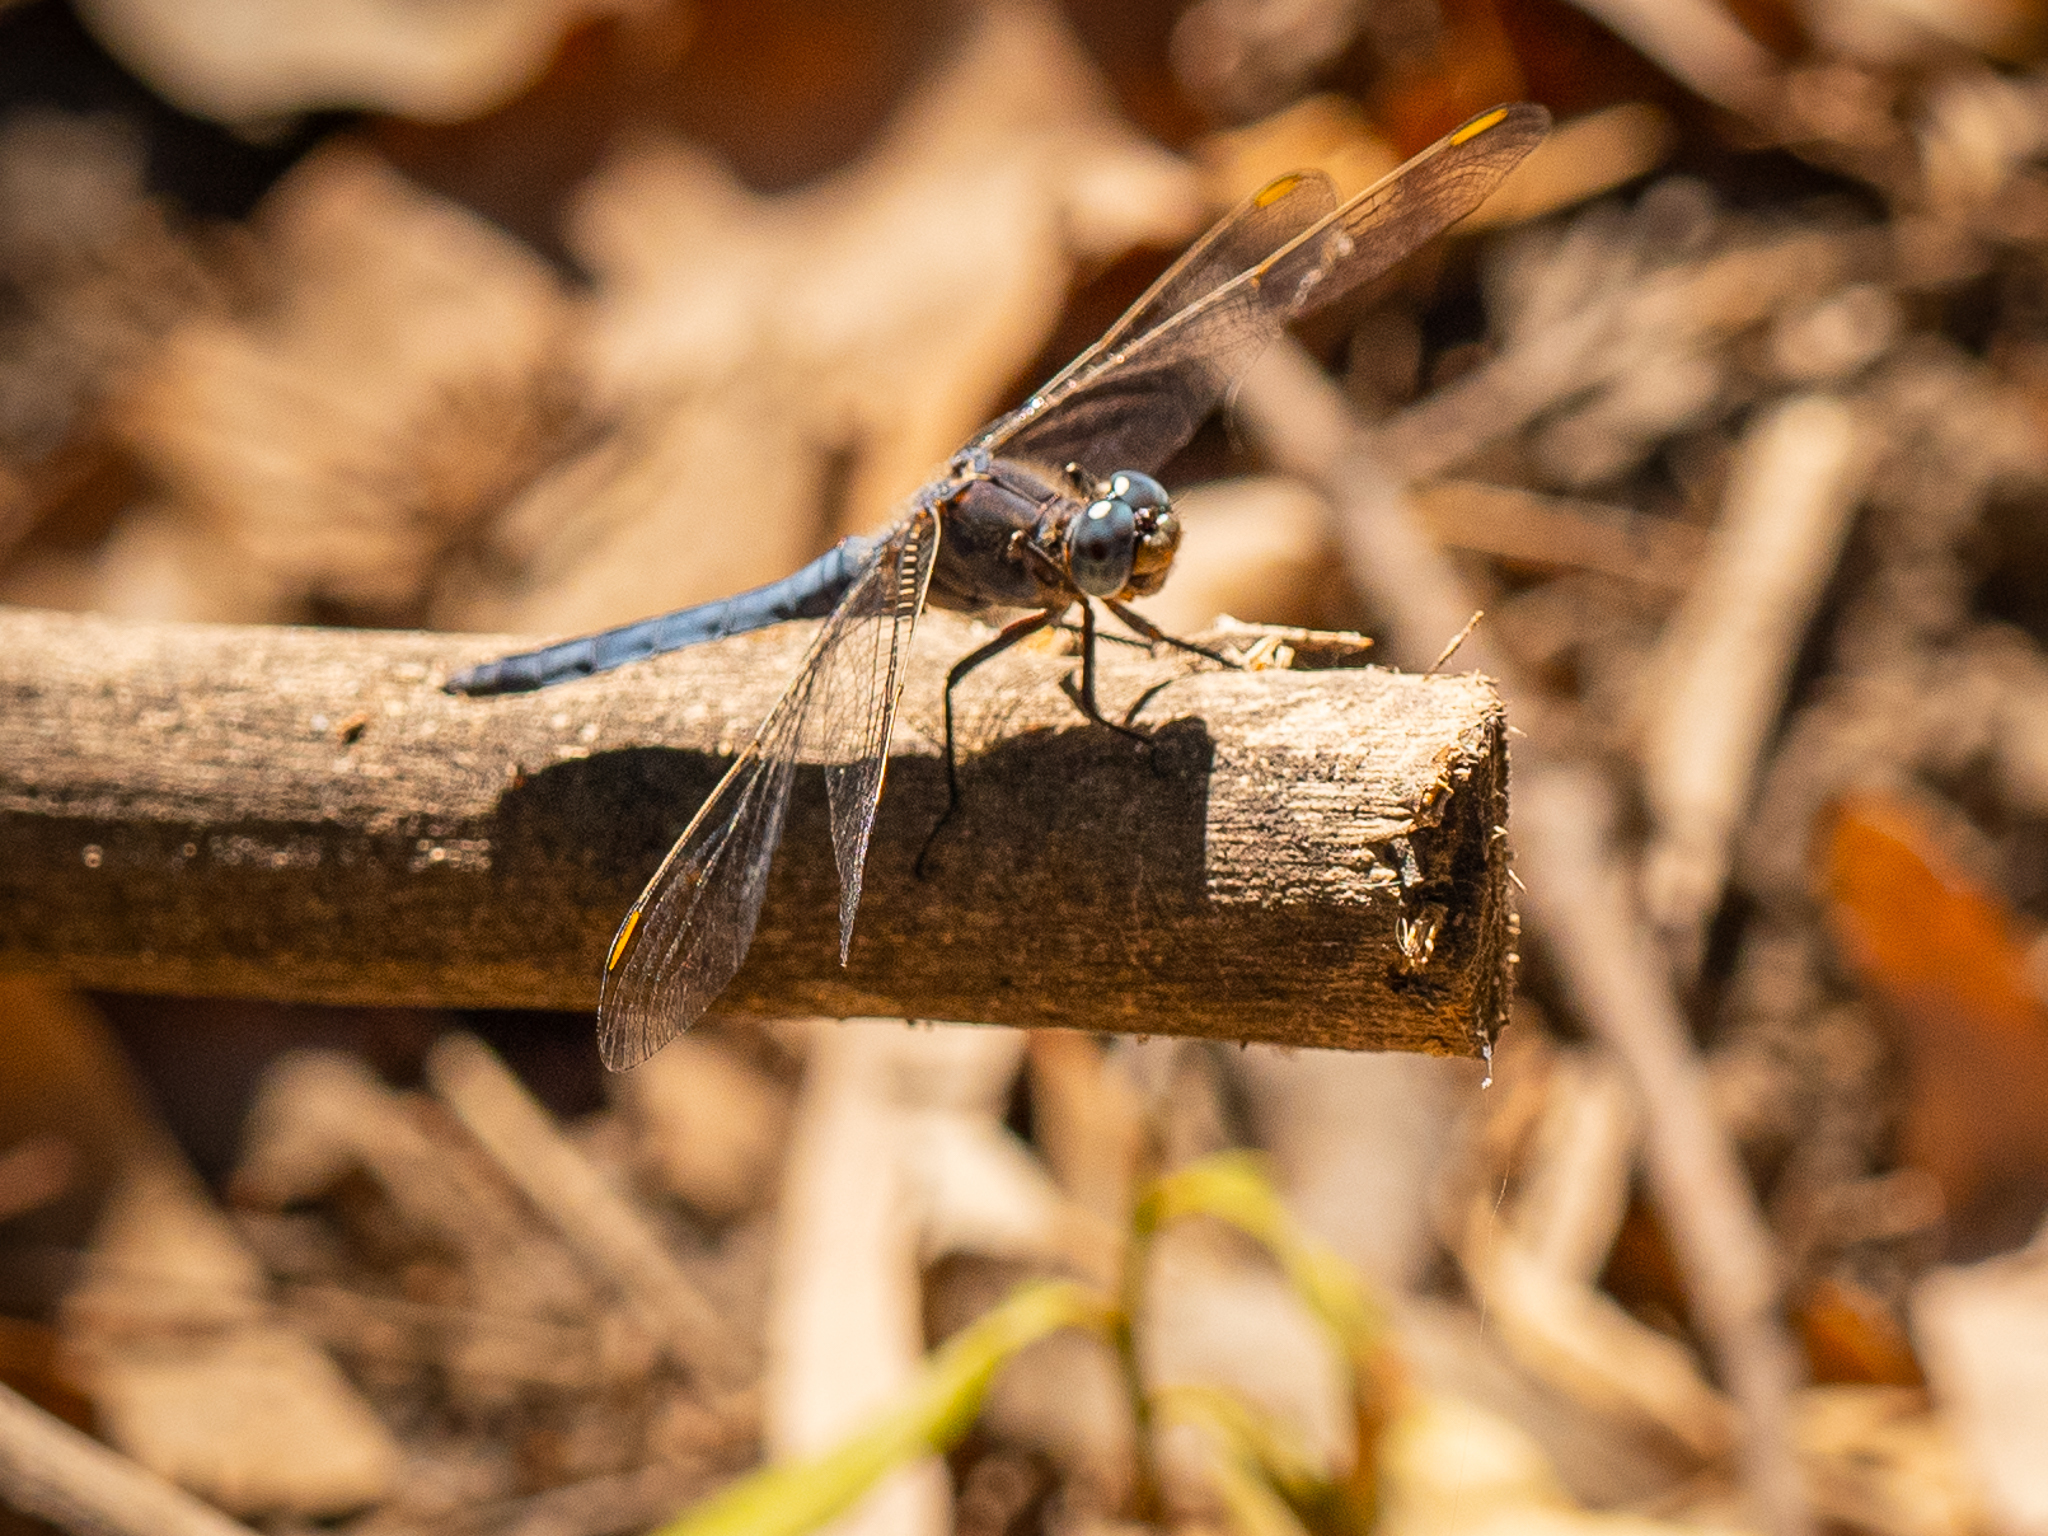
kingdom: Animalia
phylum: Arthropoda
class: Insecta
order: Odonata
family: Libellulidae
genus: Orthetrum
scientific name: Orthetrum coerulescens
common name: Keeled skimmer
